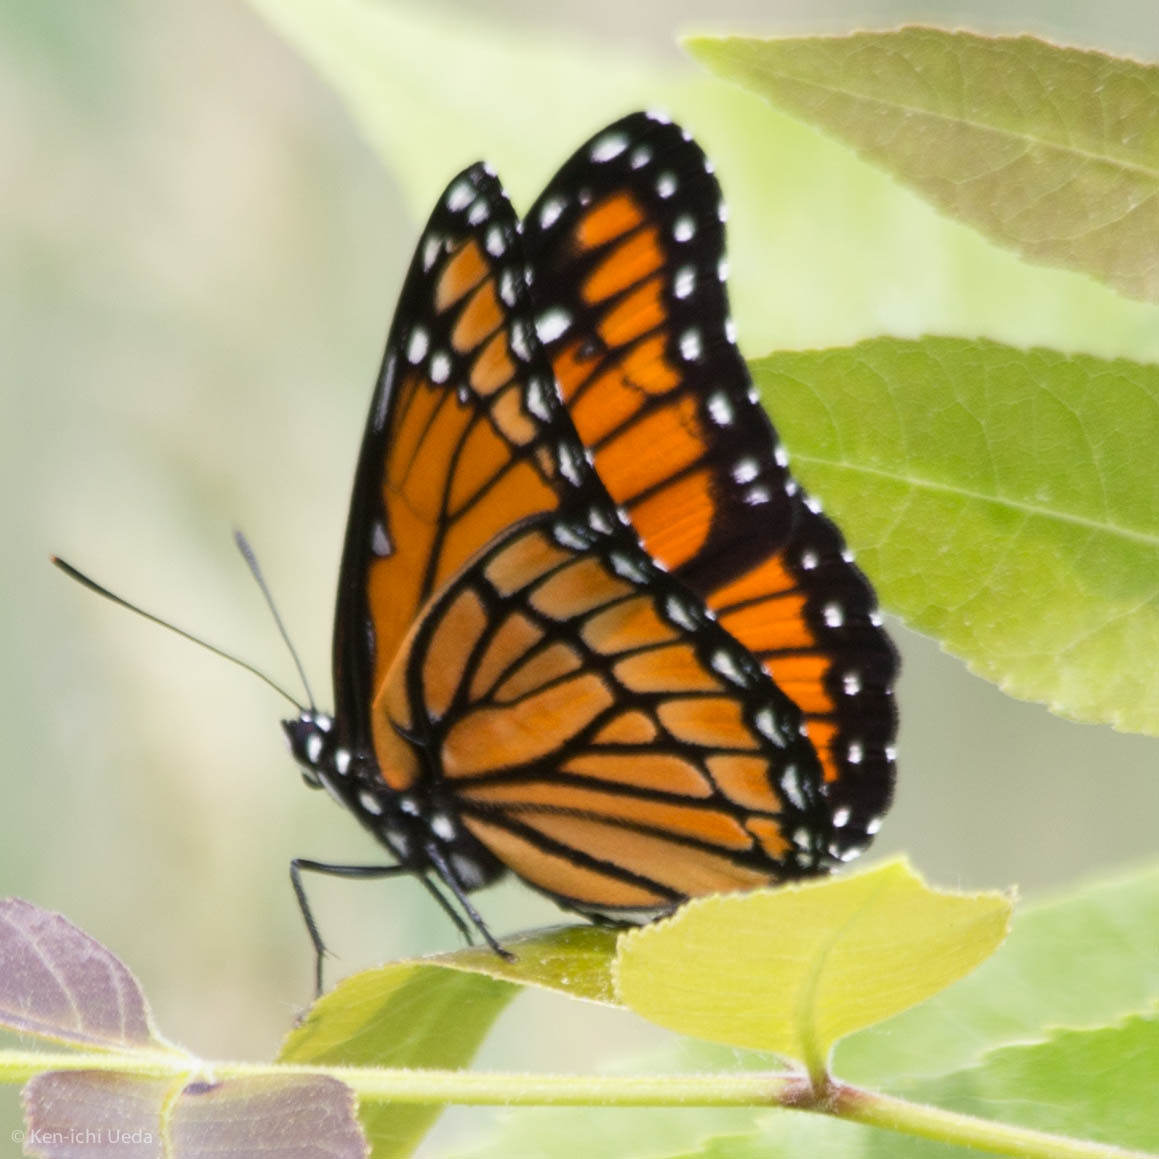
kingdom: Animalia
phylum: Arthropoda
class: Insecta
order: Lepidoptera
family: Nymphalidae
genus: Limenitis
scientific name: Limenitis archippus
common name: Viceroy
